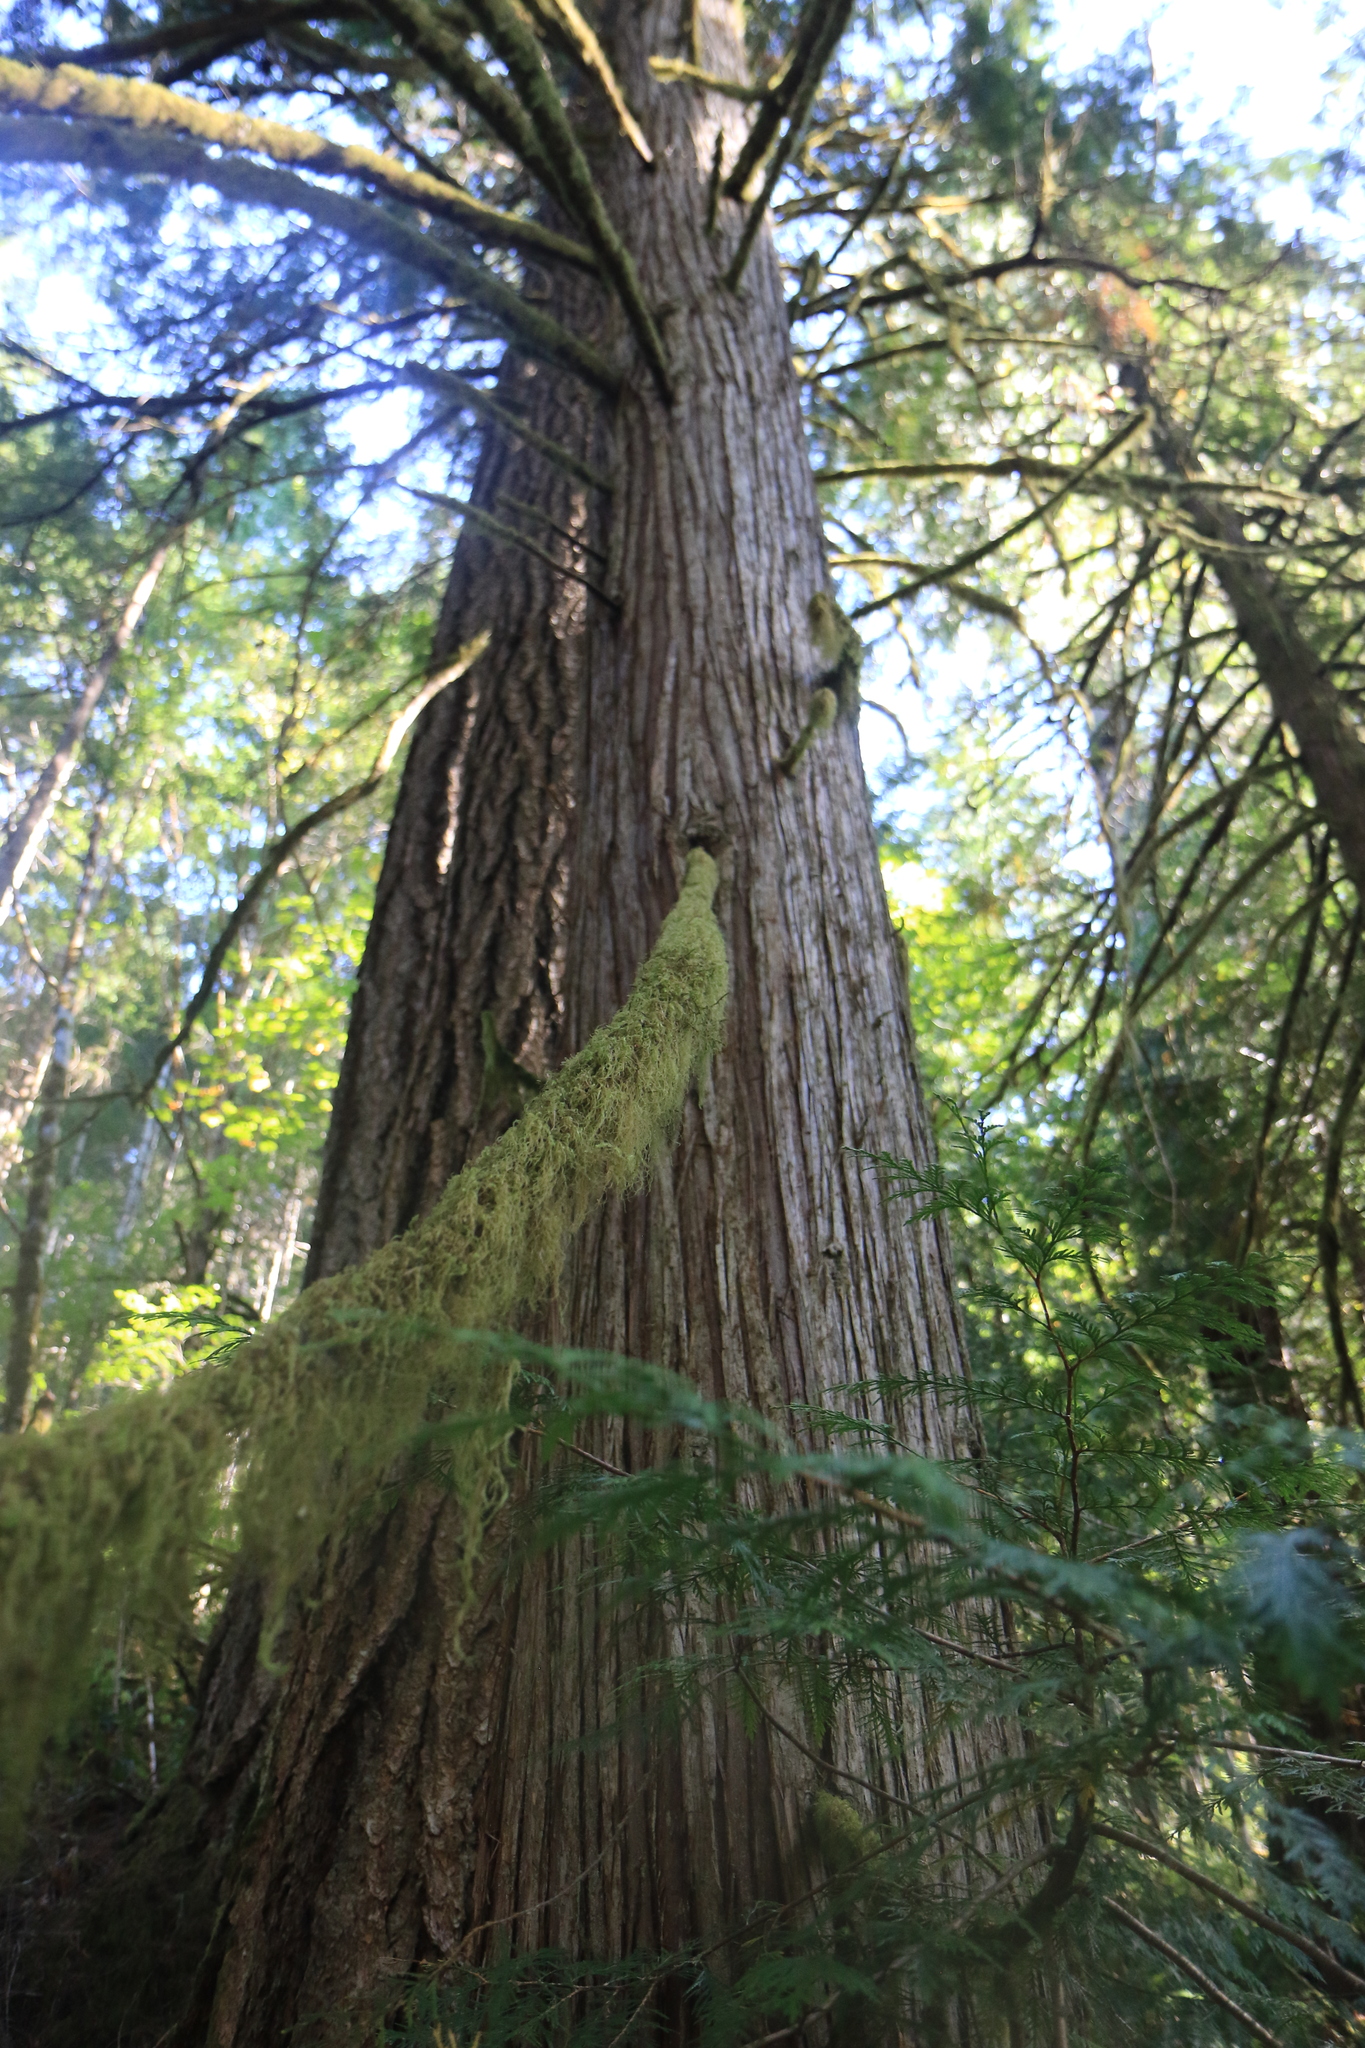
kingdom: Plantae
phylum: Tracheophyta
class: Pinopsida
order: Pinales
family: Cupressaceae
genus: Thuja
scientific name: Thuja plicata
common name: Western red-cedar
